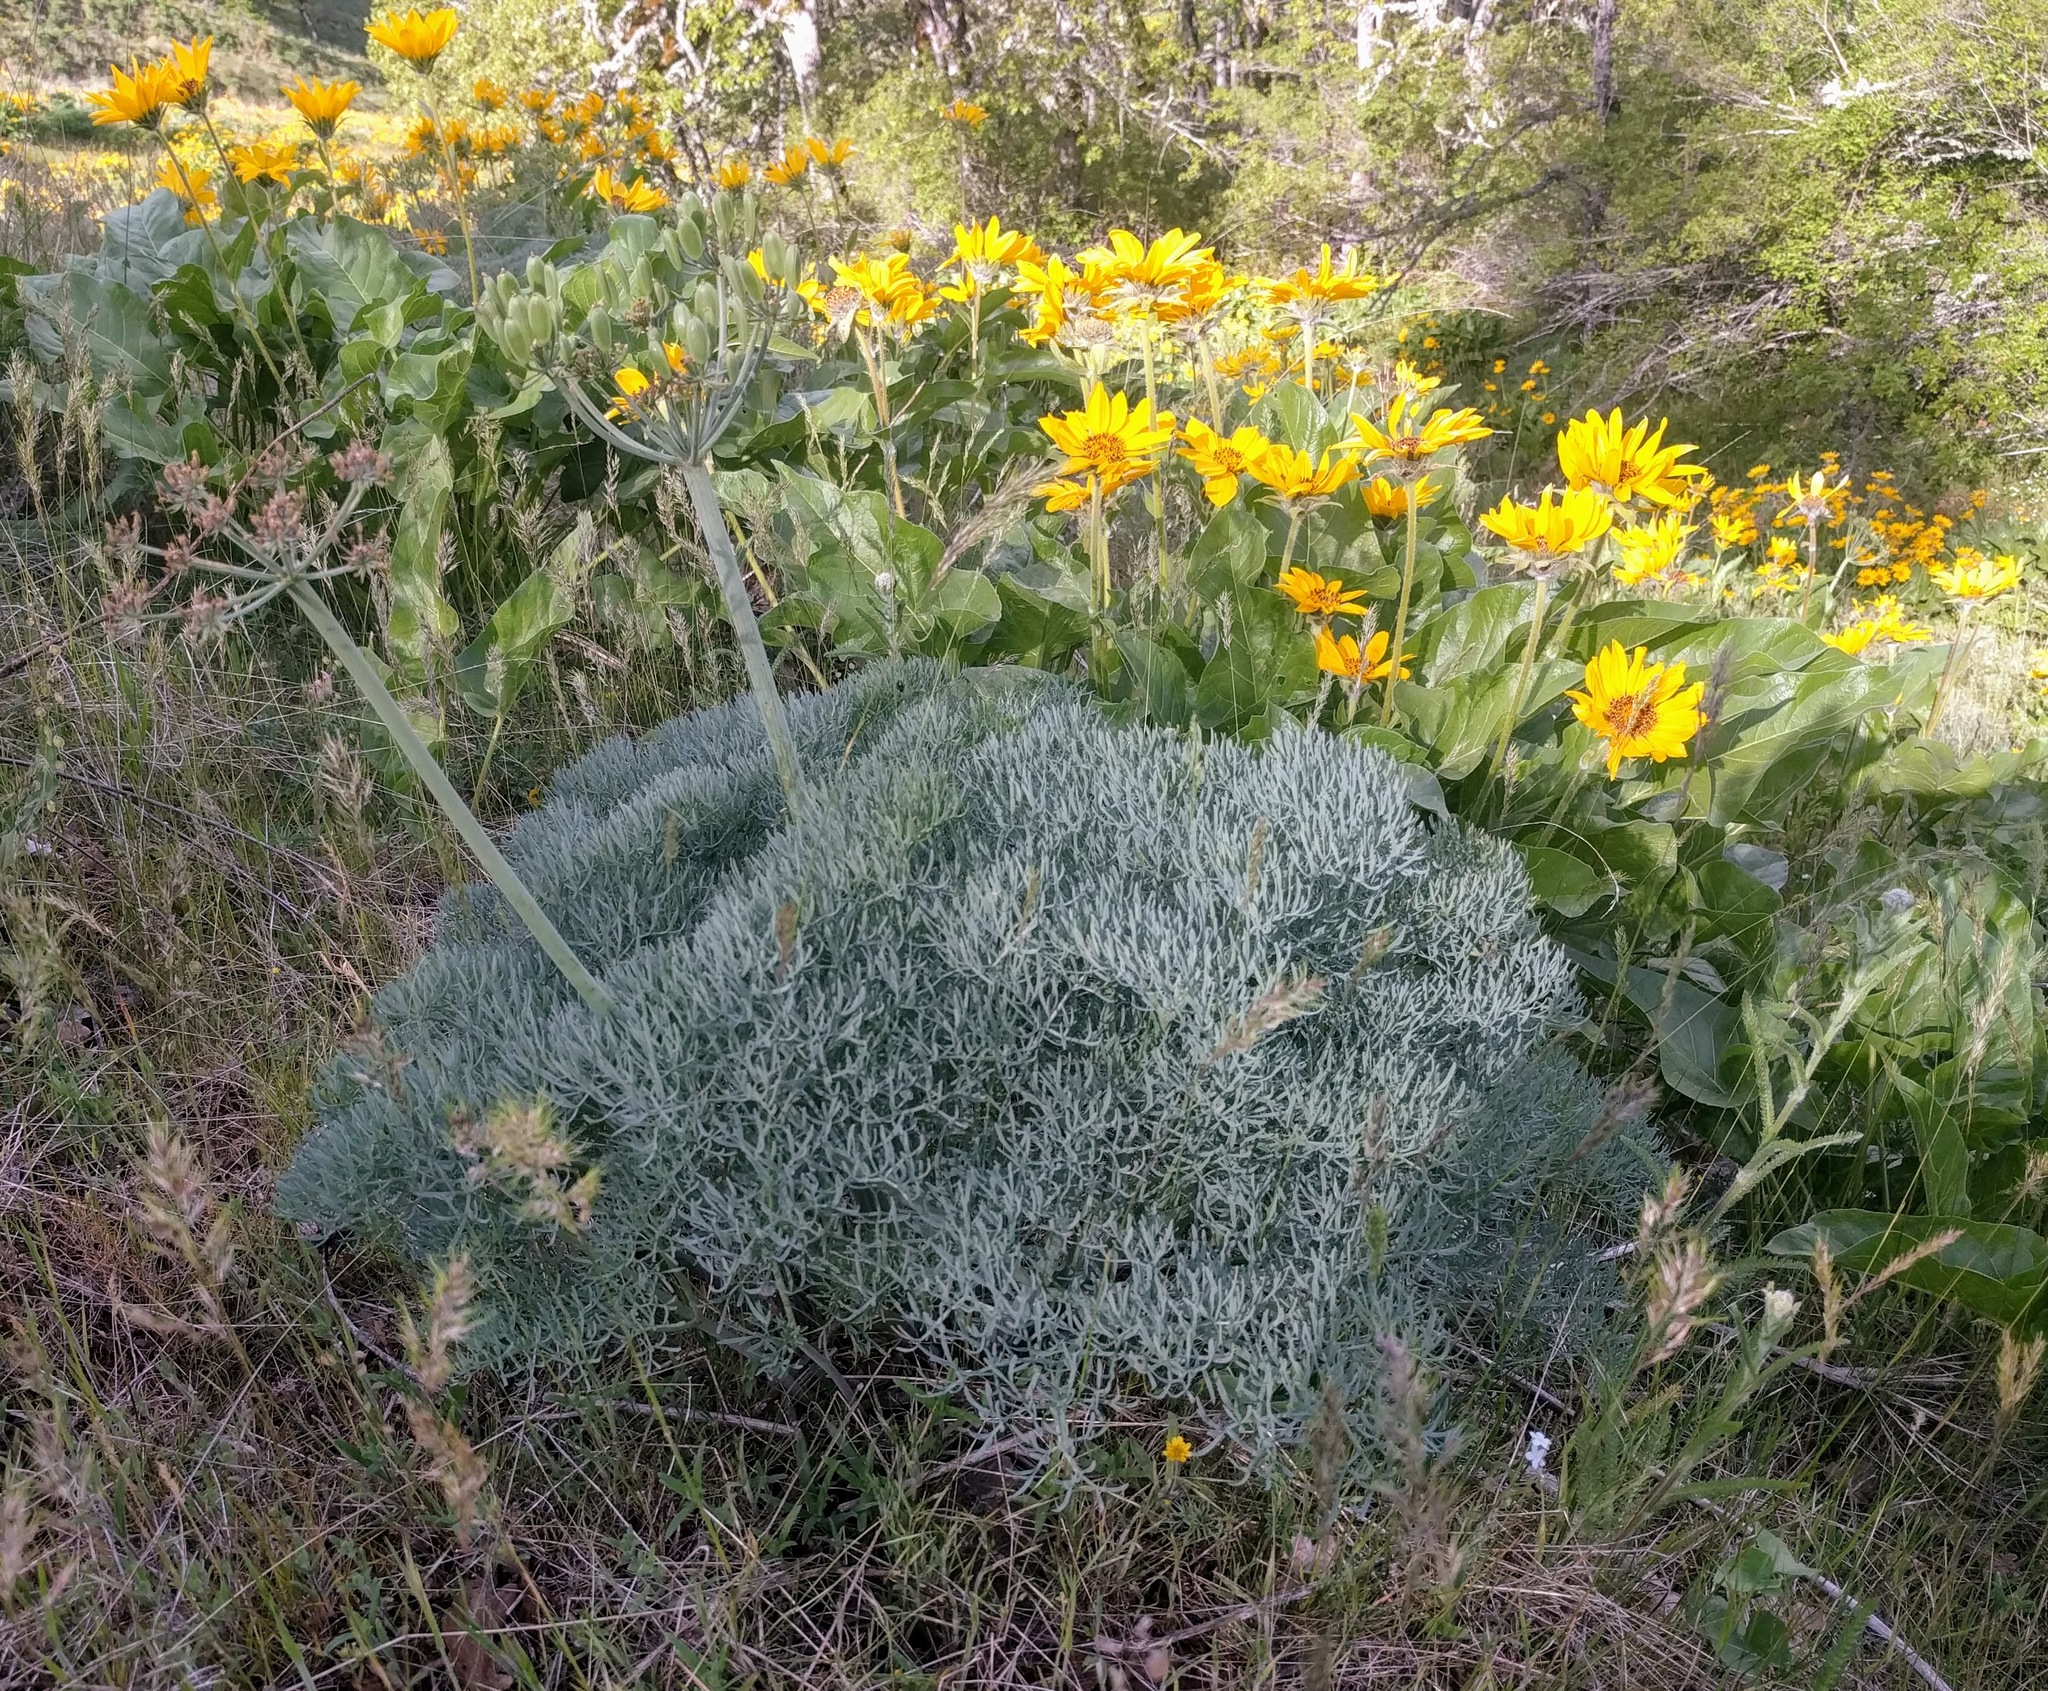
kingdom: Plantae
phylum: Tracheophyta
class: Magnoliopsida
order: Apiales
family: Apiaceae
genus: Lomatium
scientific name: Lomatium columbianum
